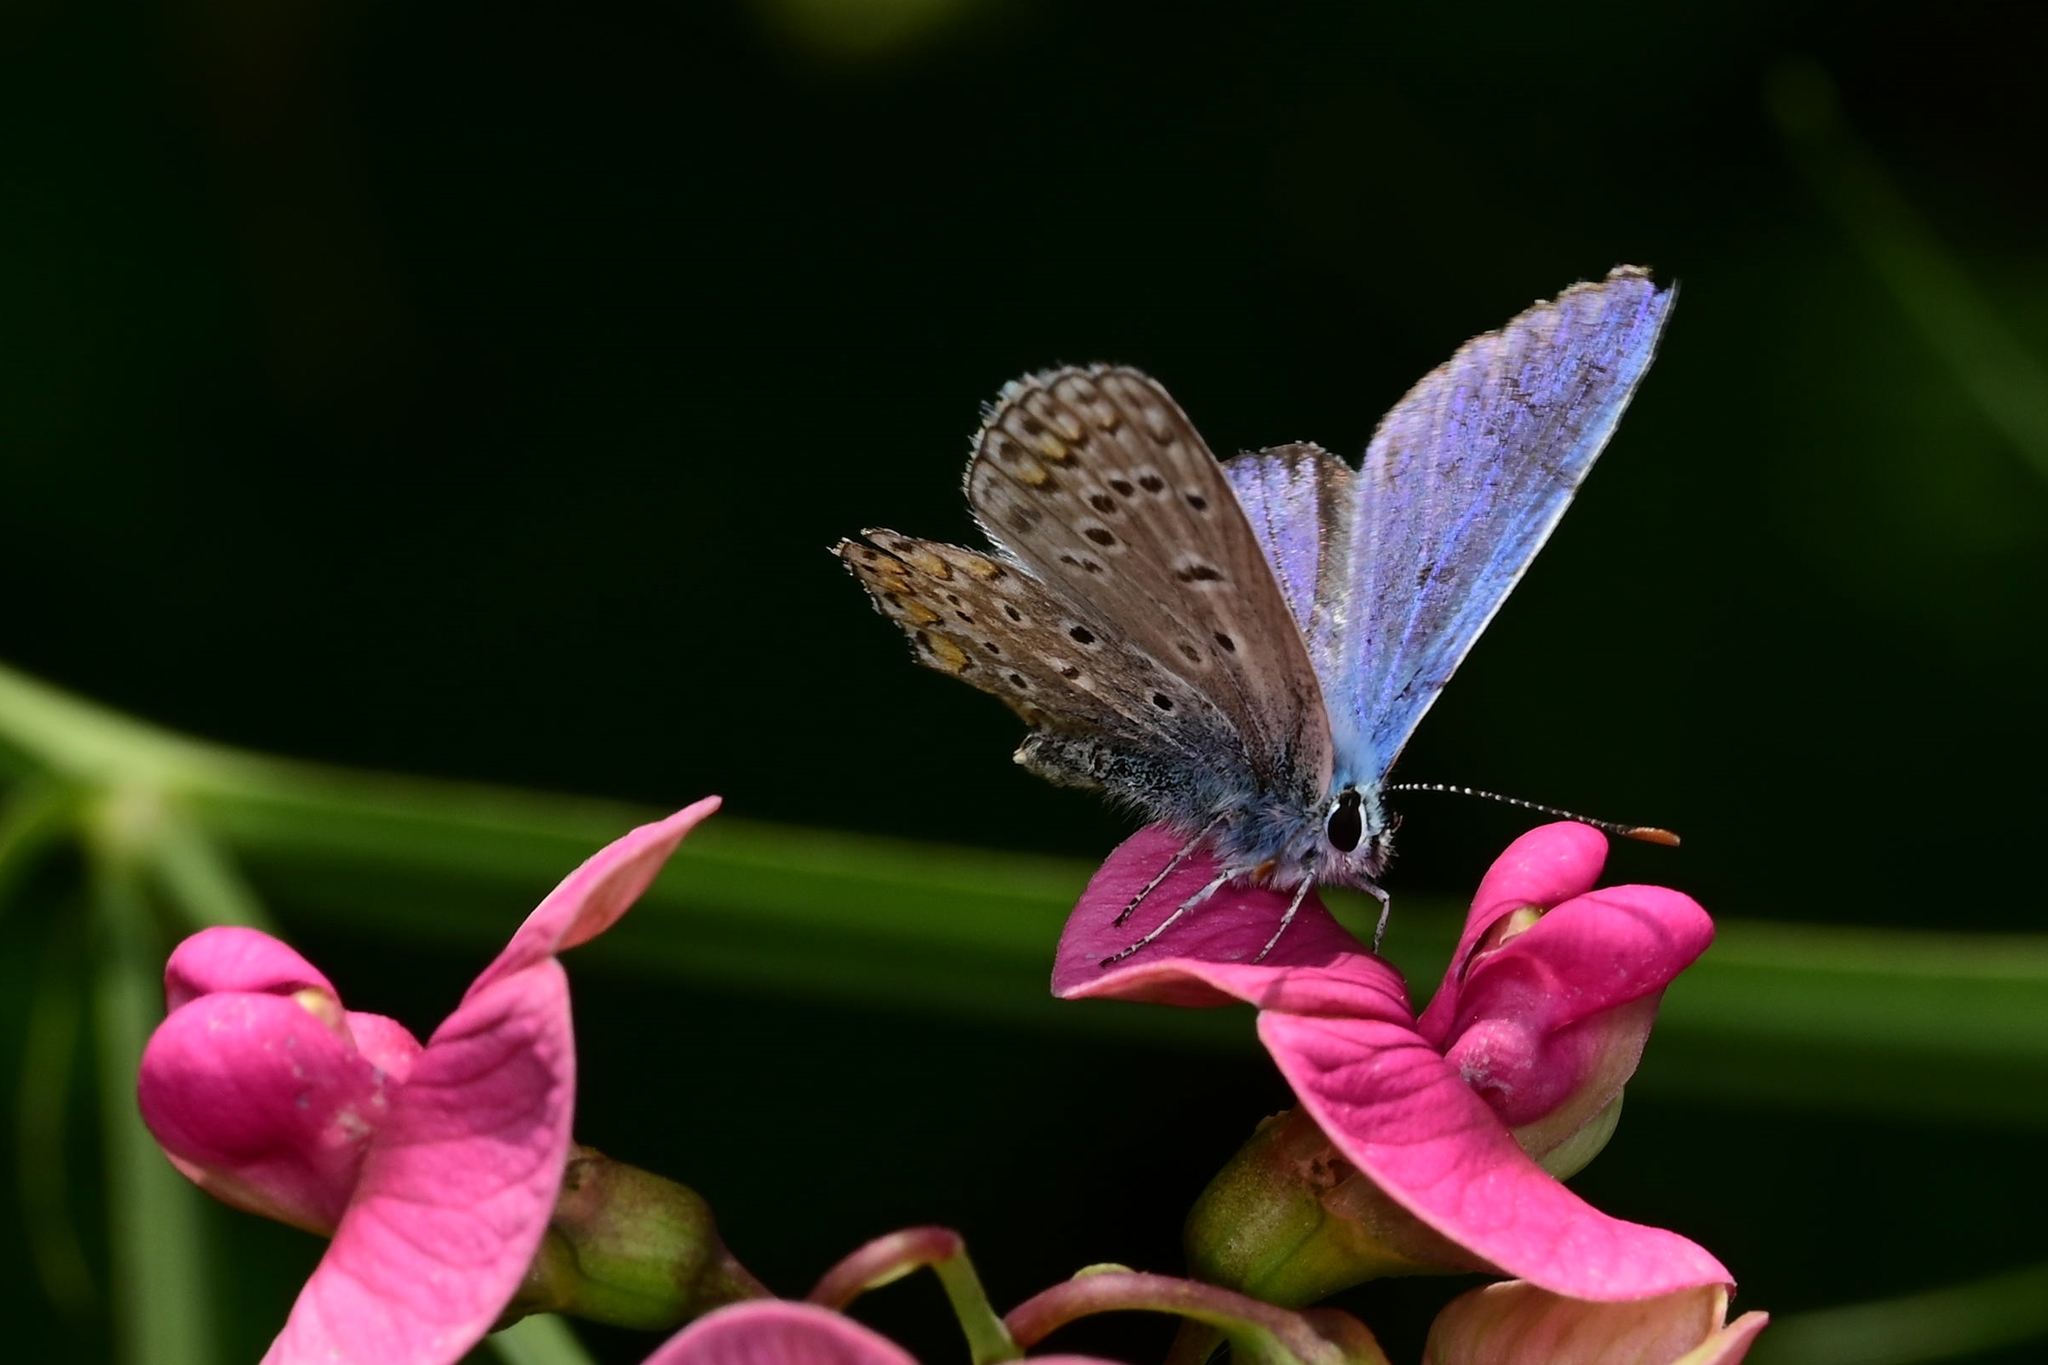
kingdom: Animalia
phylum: Arthropoda
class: Insecta
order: Lepidoptera
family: Lycaenidae
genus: Polyommatus
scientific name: Polyommatus icarus
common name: Common blue
